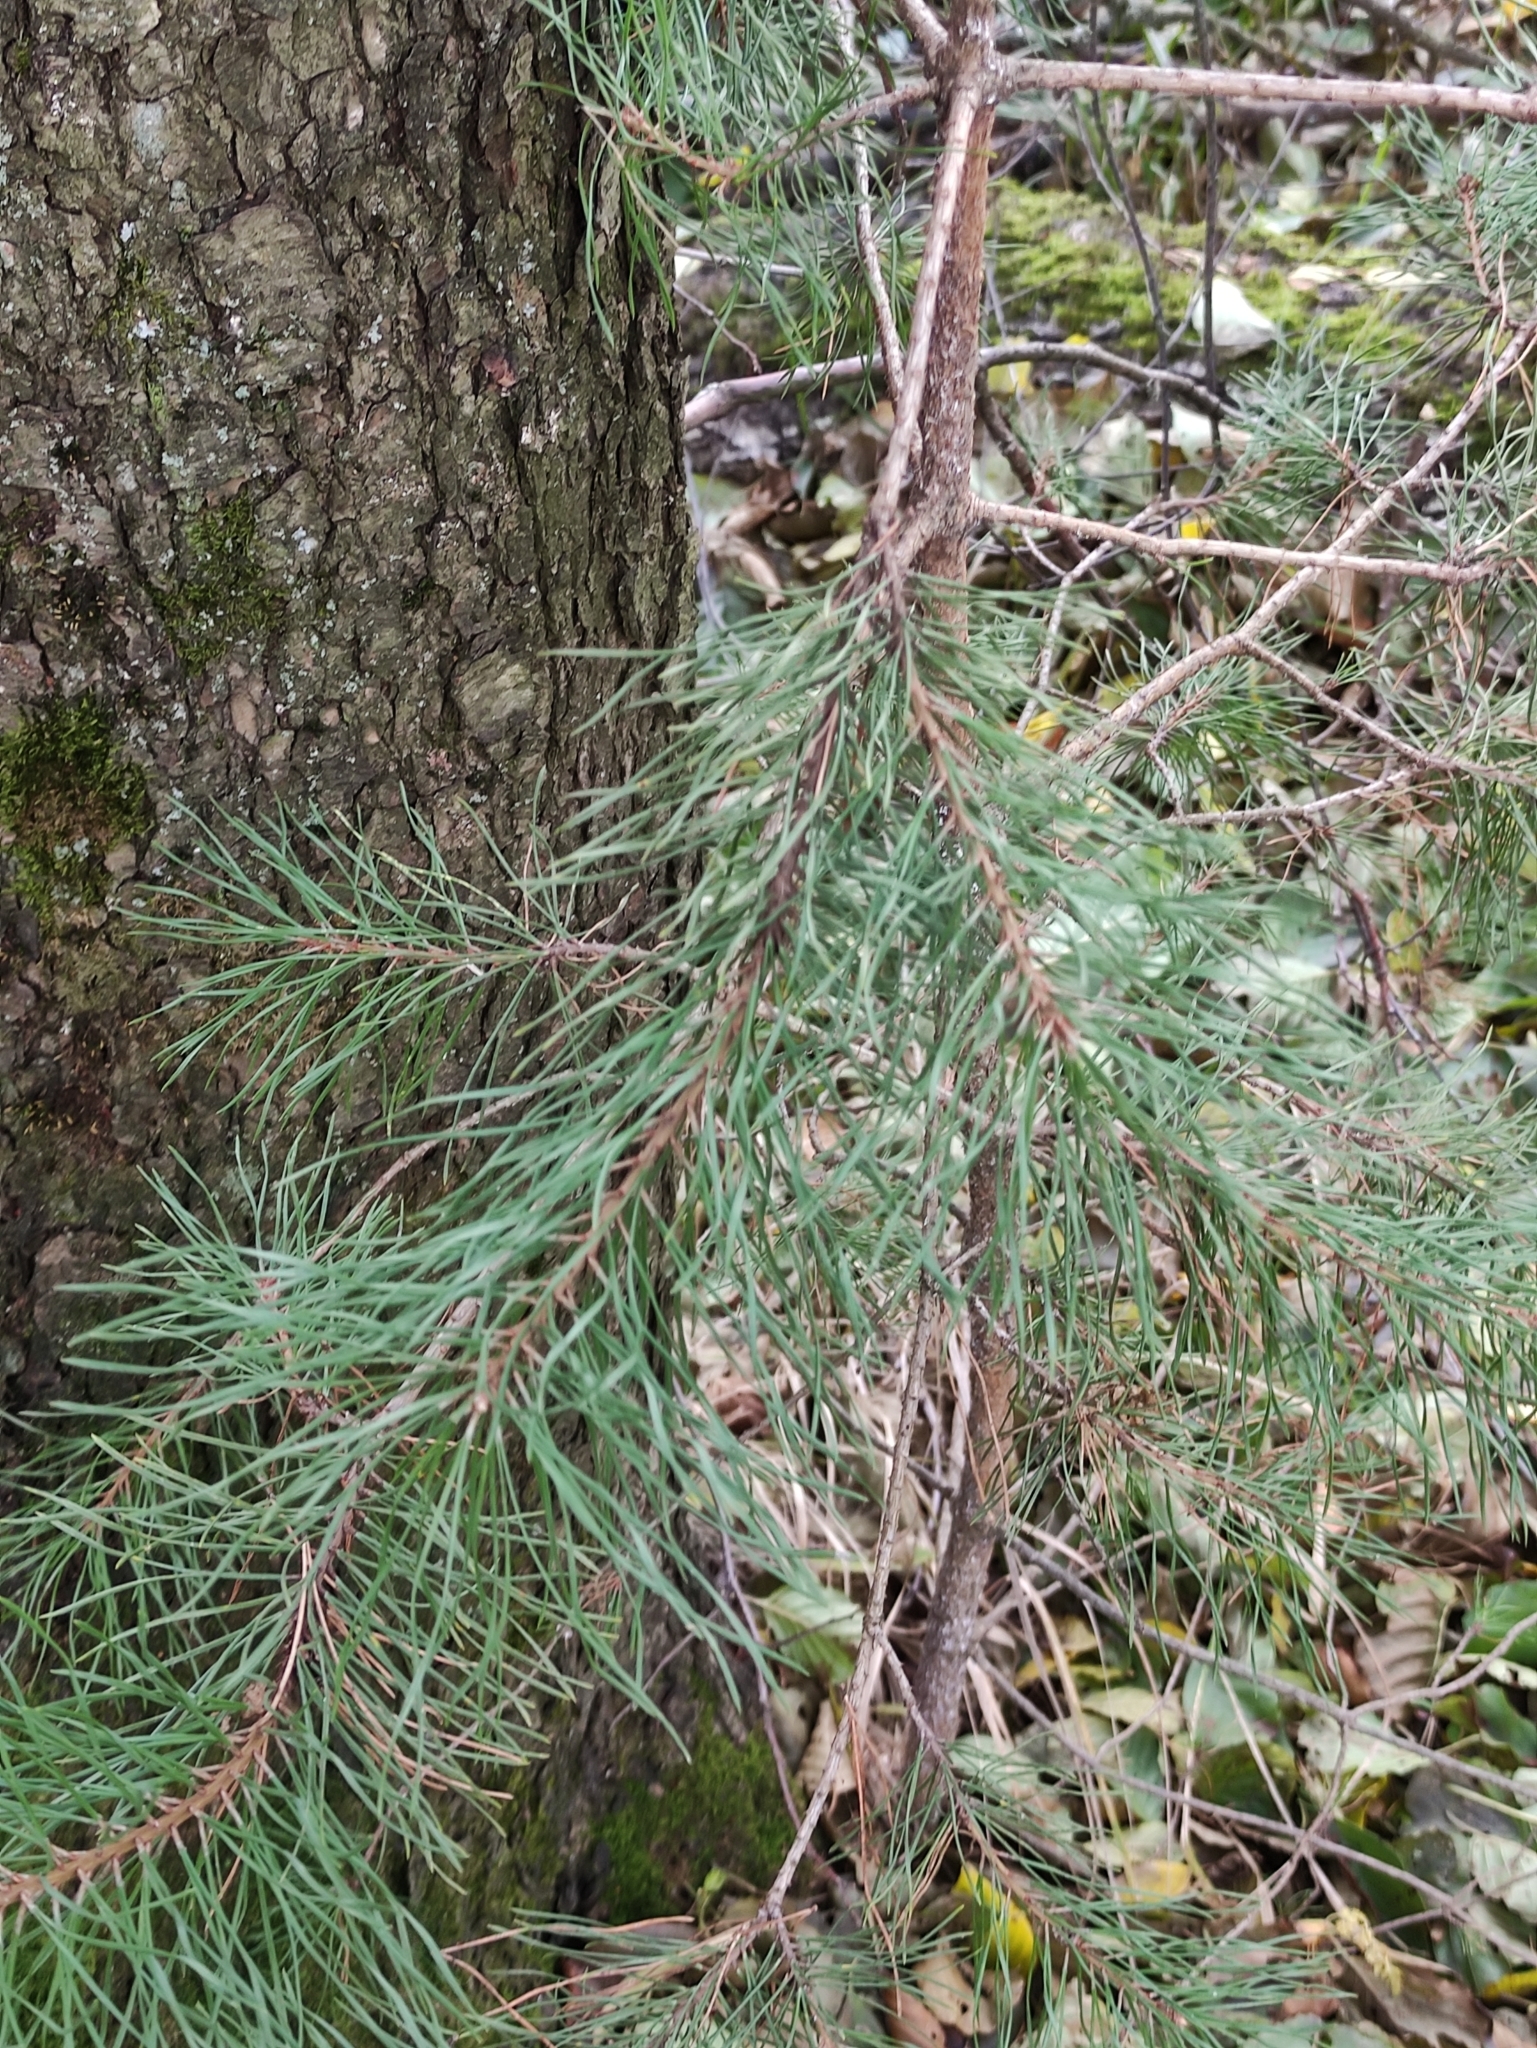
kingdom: Plantae
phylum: Tracheophyta
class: Pinopsida
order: Pinales
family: Pinaceae
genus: Pinus
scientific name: Pinus sylvestris
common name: Scots pine
